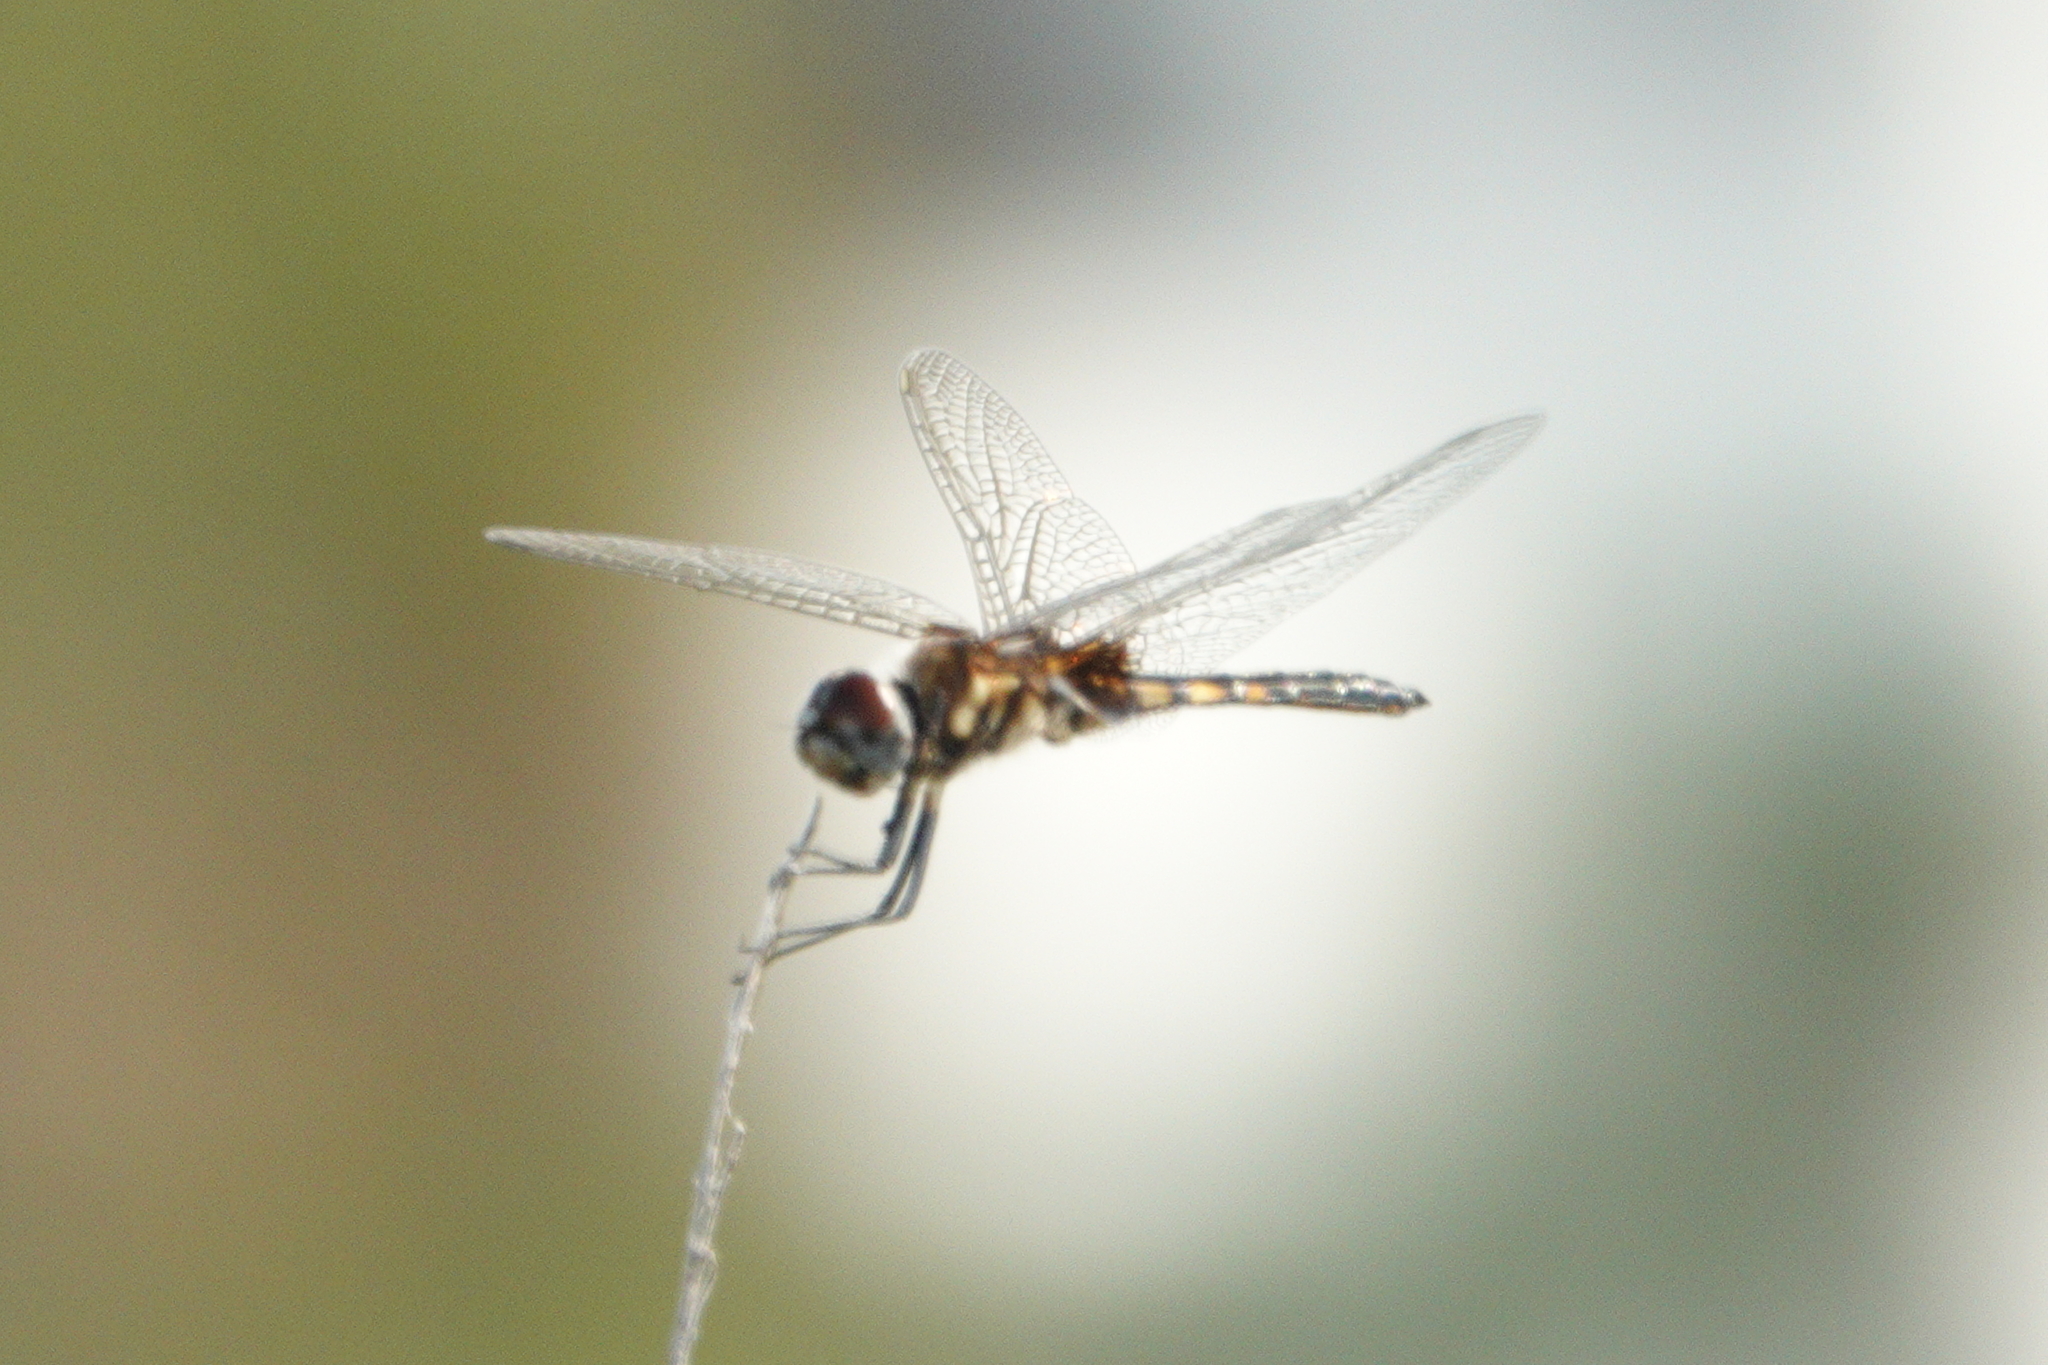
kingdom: Animalia
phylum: Arthropoda
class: Insecta
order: Odonata
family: Libellulidae
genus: Macrodiplax
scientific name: Macrodiplax balteata
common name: Marl pennant
